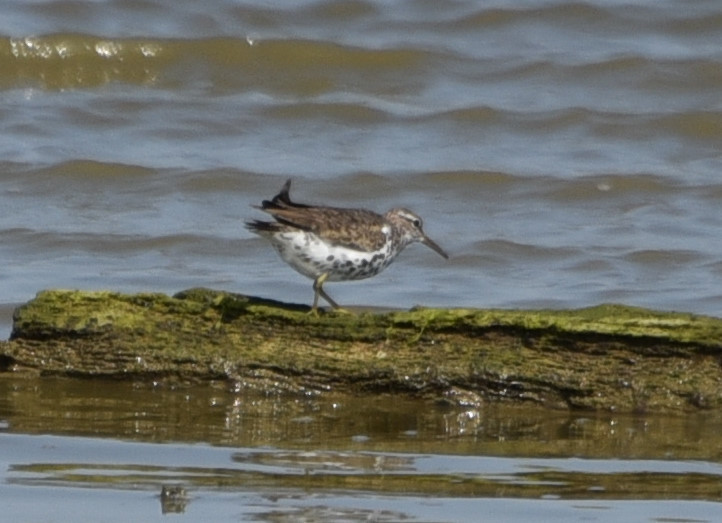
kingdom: Animalia
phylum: Chordata
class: Aves
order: Charadriiformes
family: Scolopacidae
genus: Actitis
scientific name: Actitis macularius
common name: Spotted sandpiper
